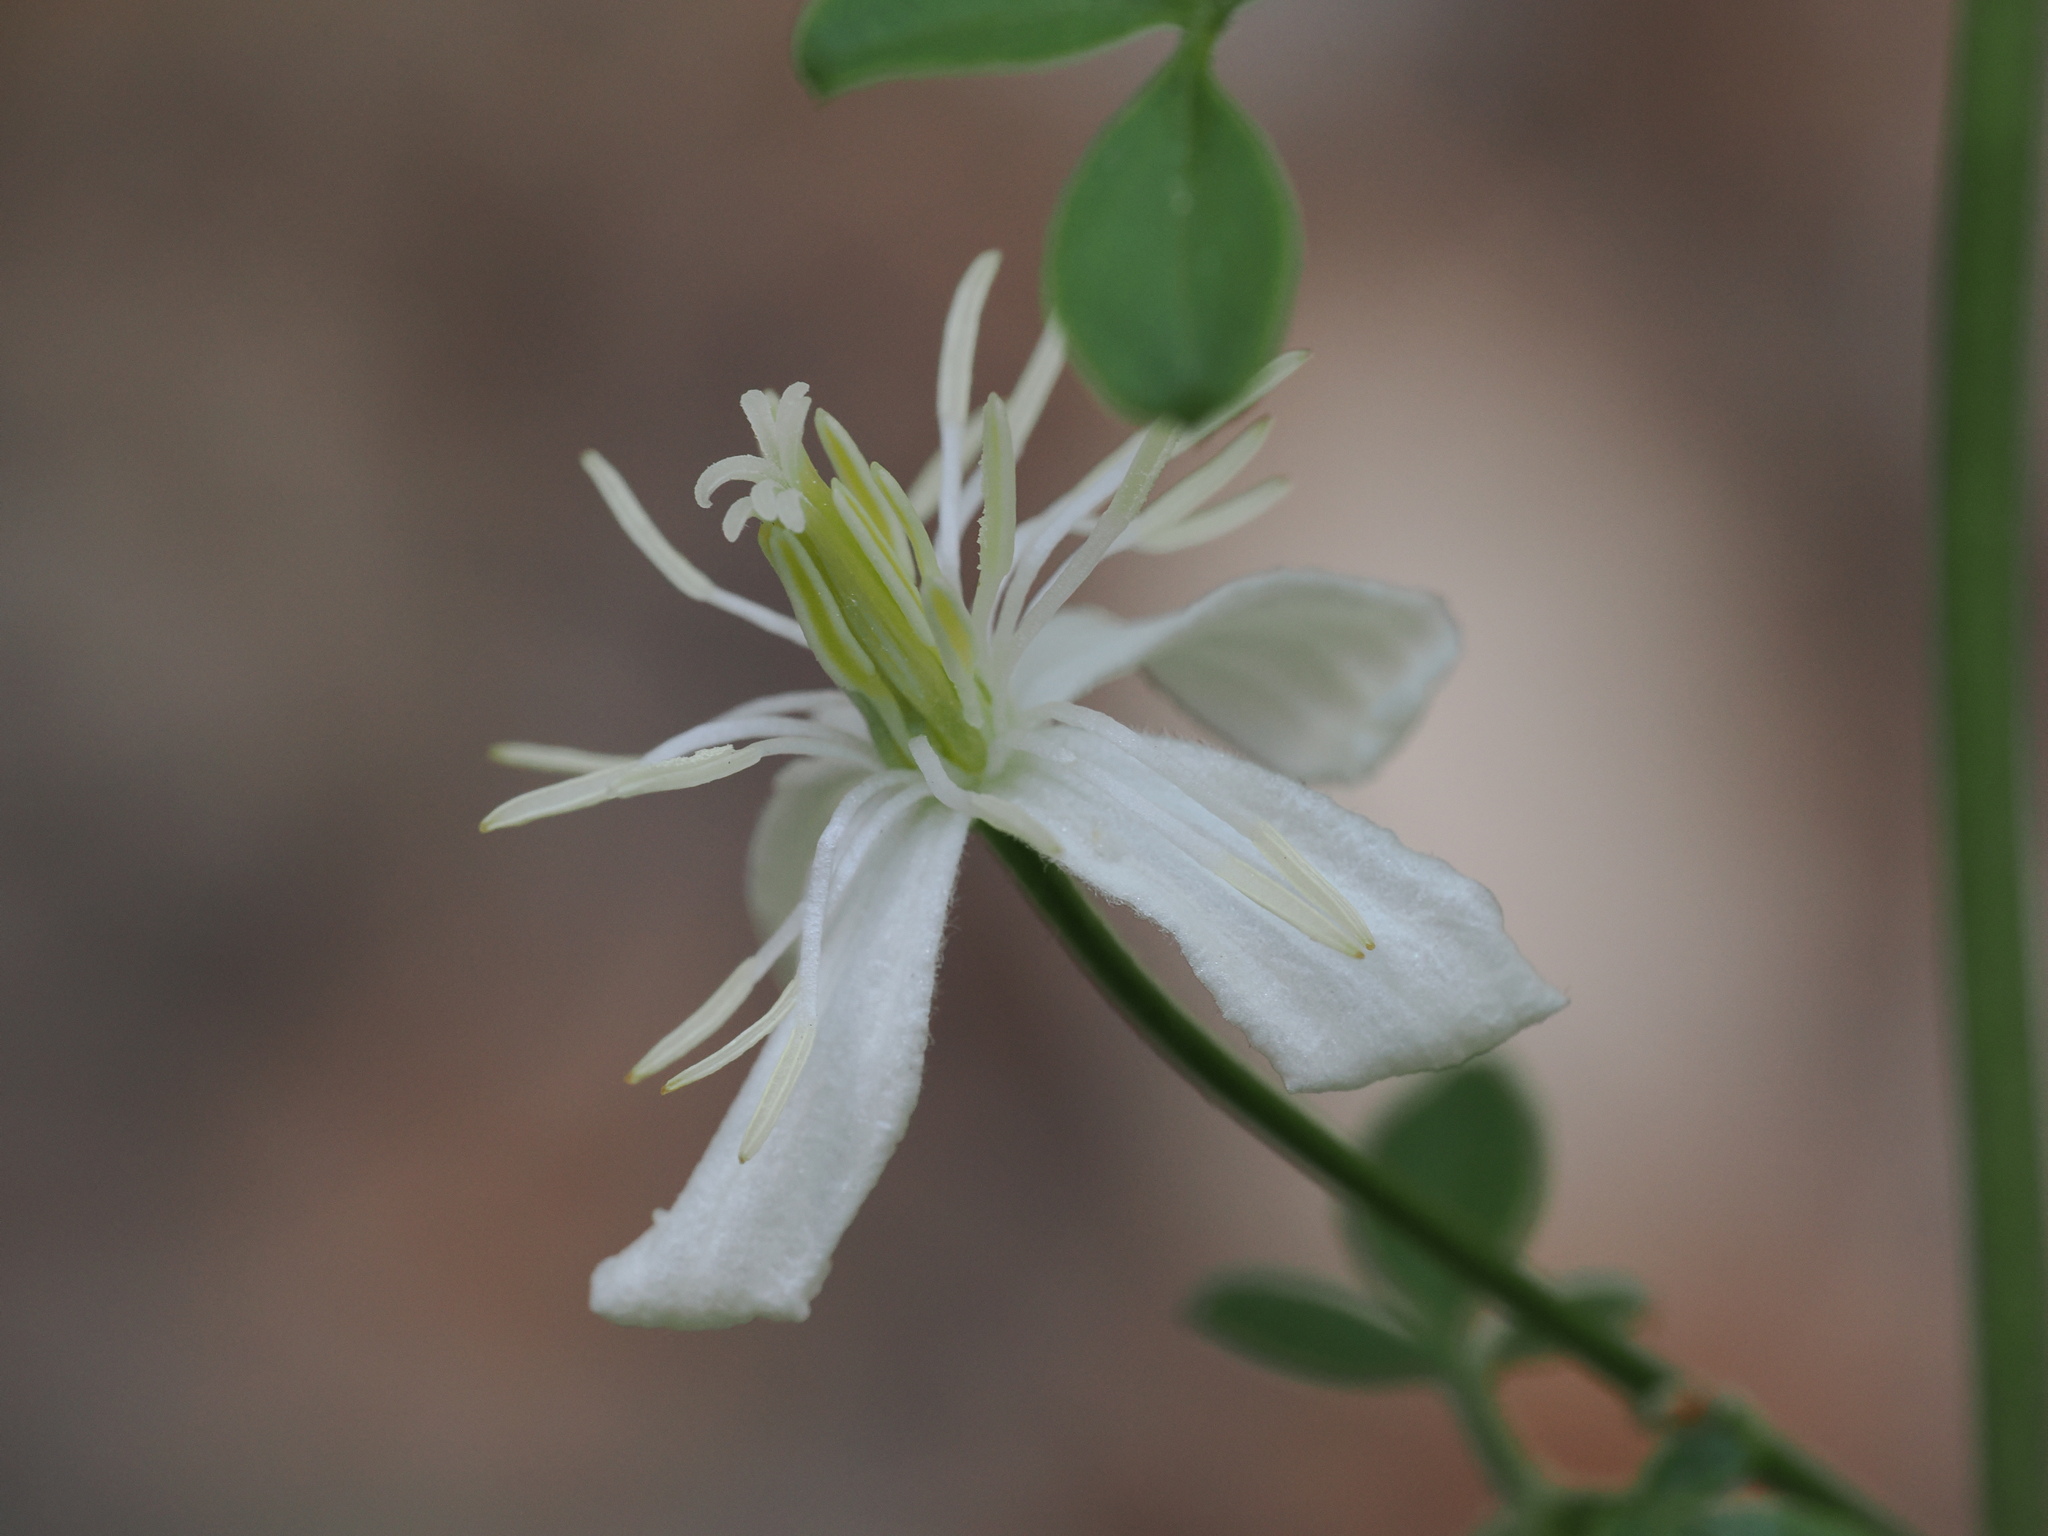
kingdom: Plantae
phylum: Tracheophyta
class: Magnoliopsida
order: Ranunculales
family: Ranunculaceae
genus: Clematis
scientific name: Clematis flammula
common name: Virgin's-bower
